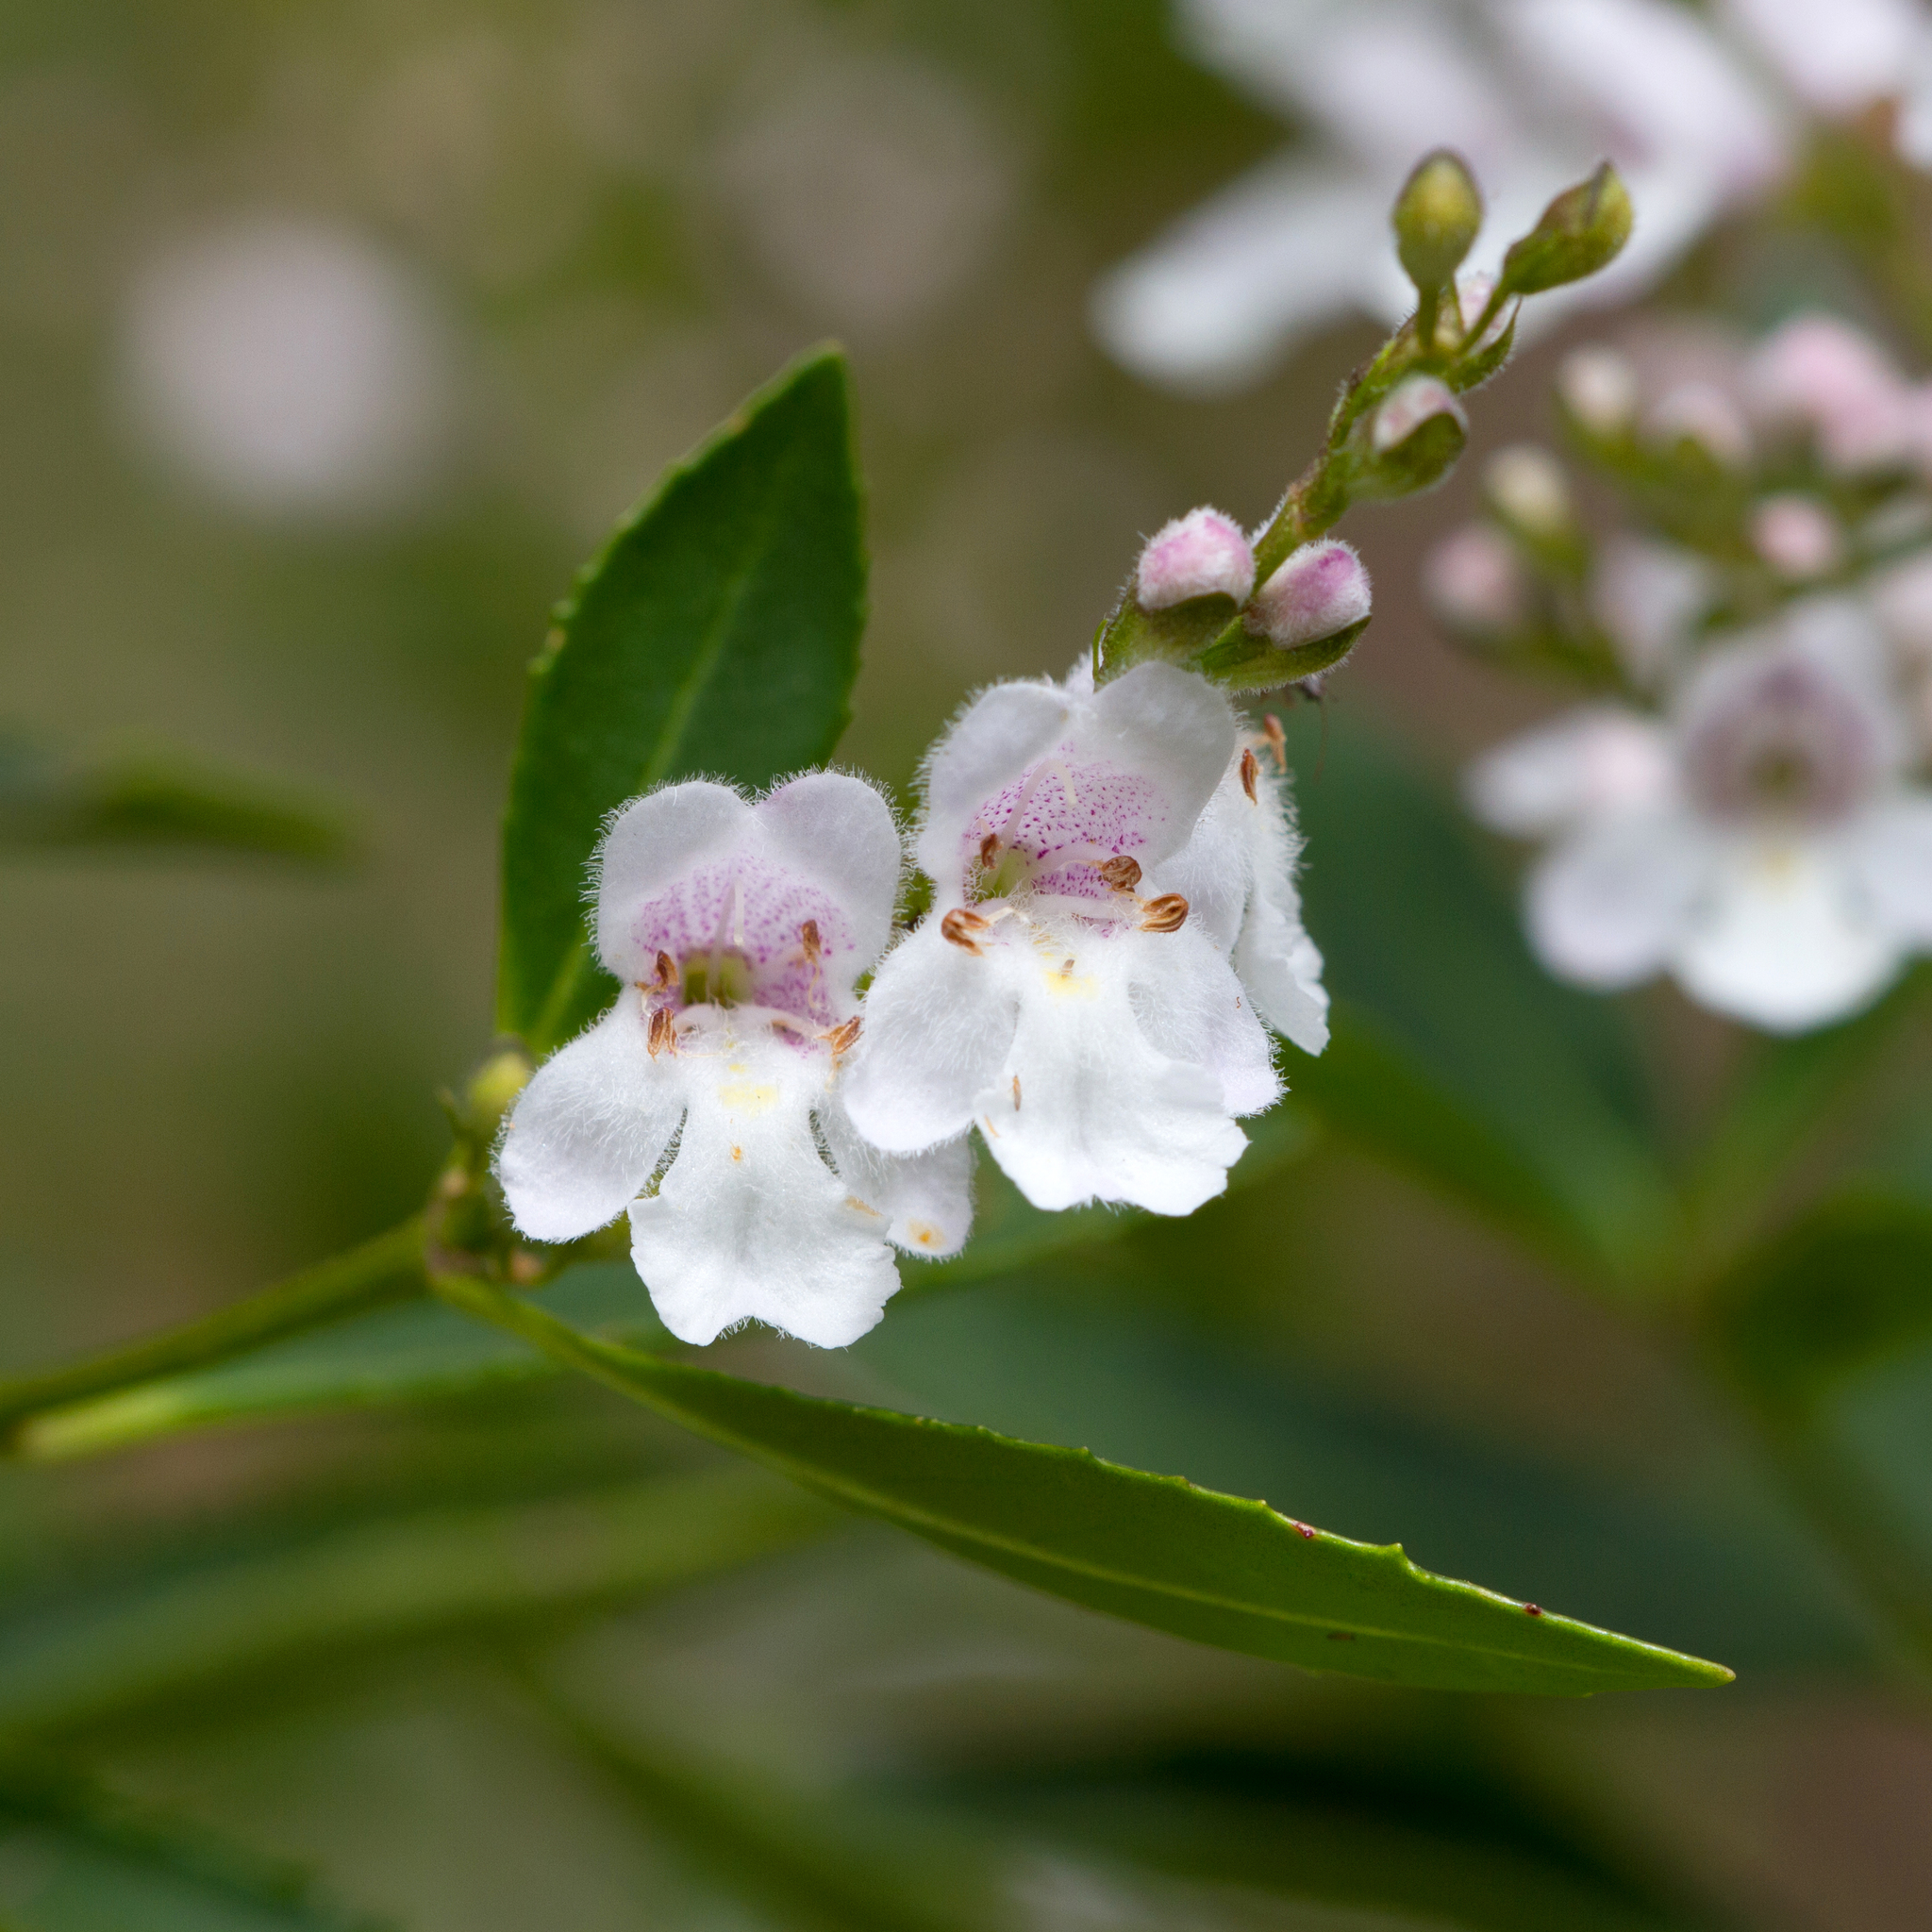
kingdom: Plantae
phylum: Tracheophyta
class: Magnoliopsida
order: Lamiales
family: Lamiaceae
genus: Prostanthera
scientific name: Prostanthera lasianthos
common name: Mountain-lilac
